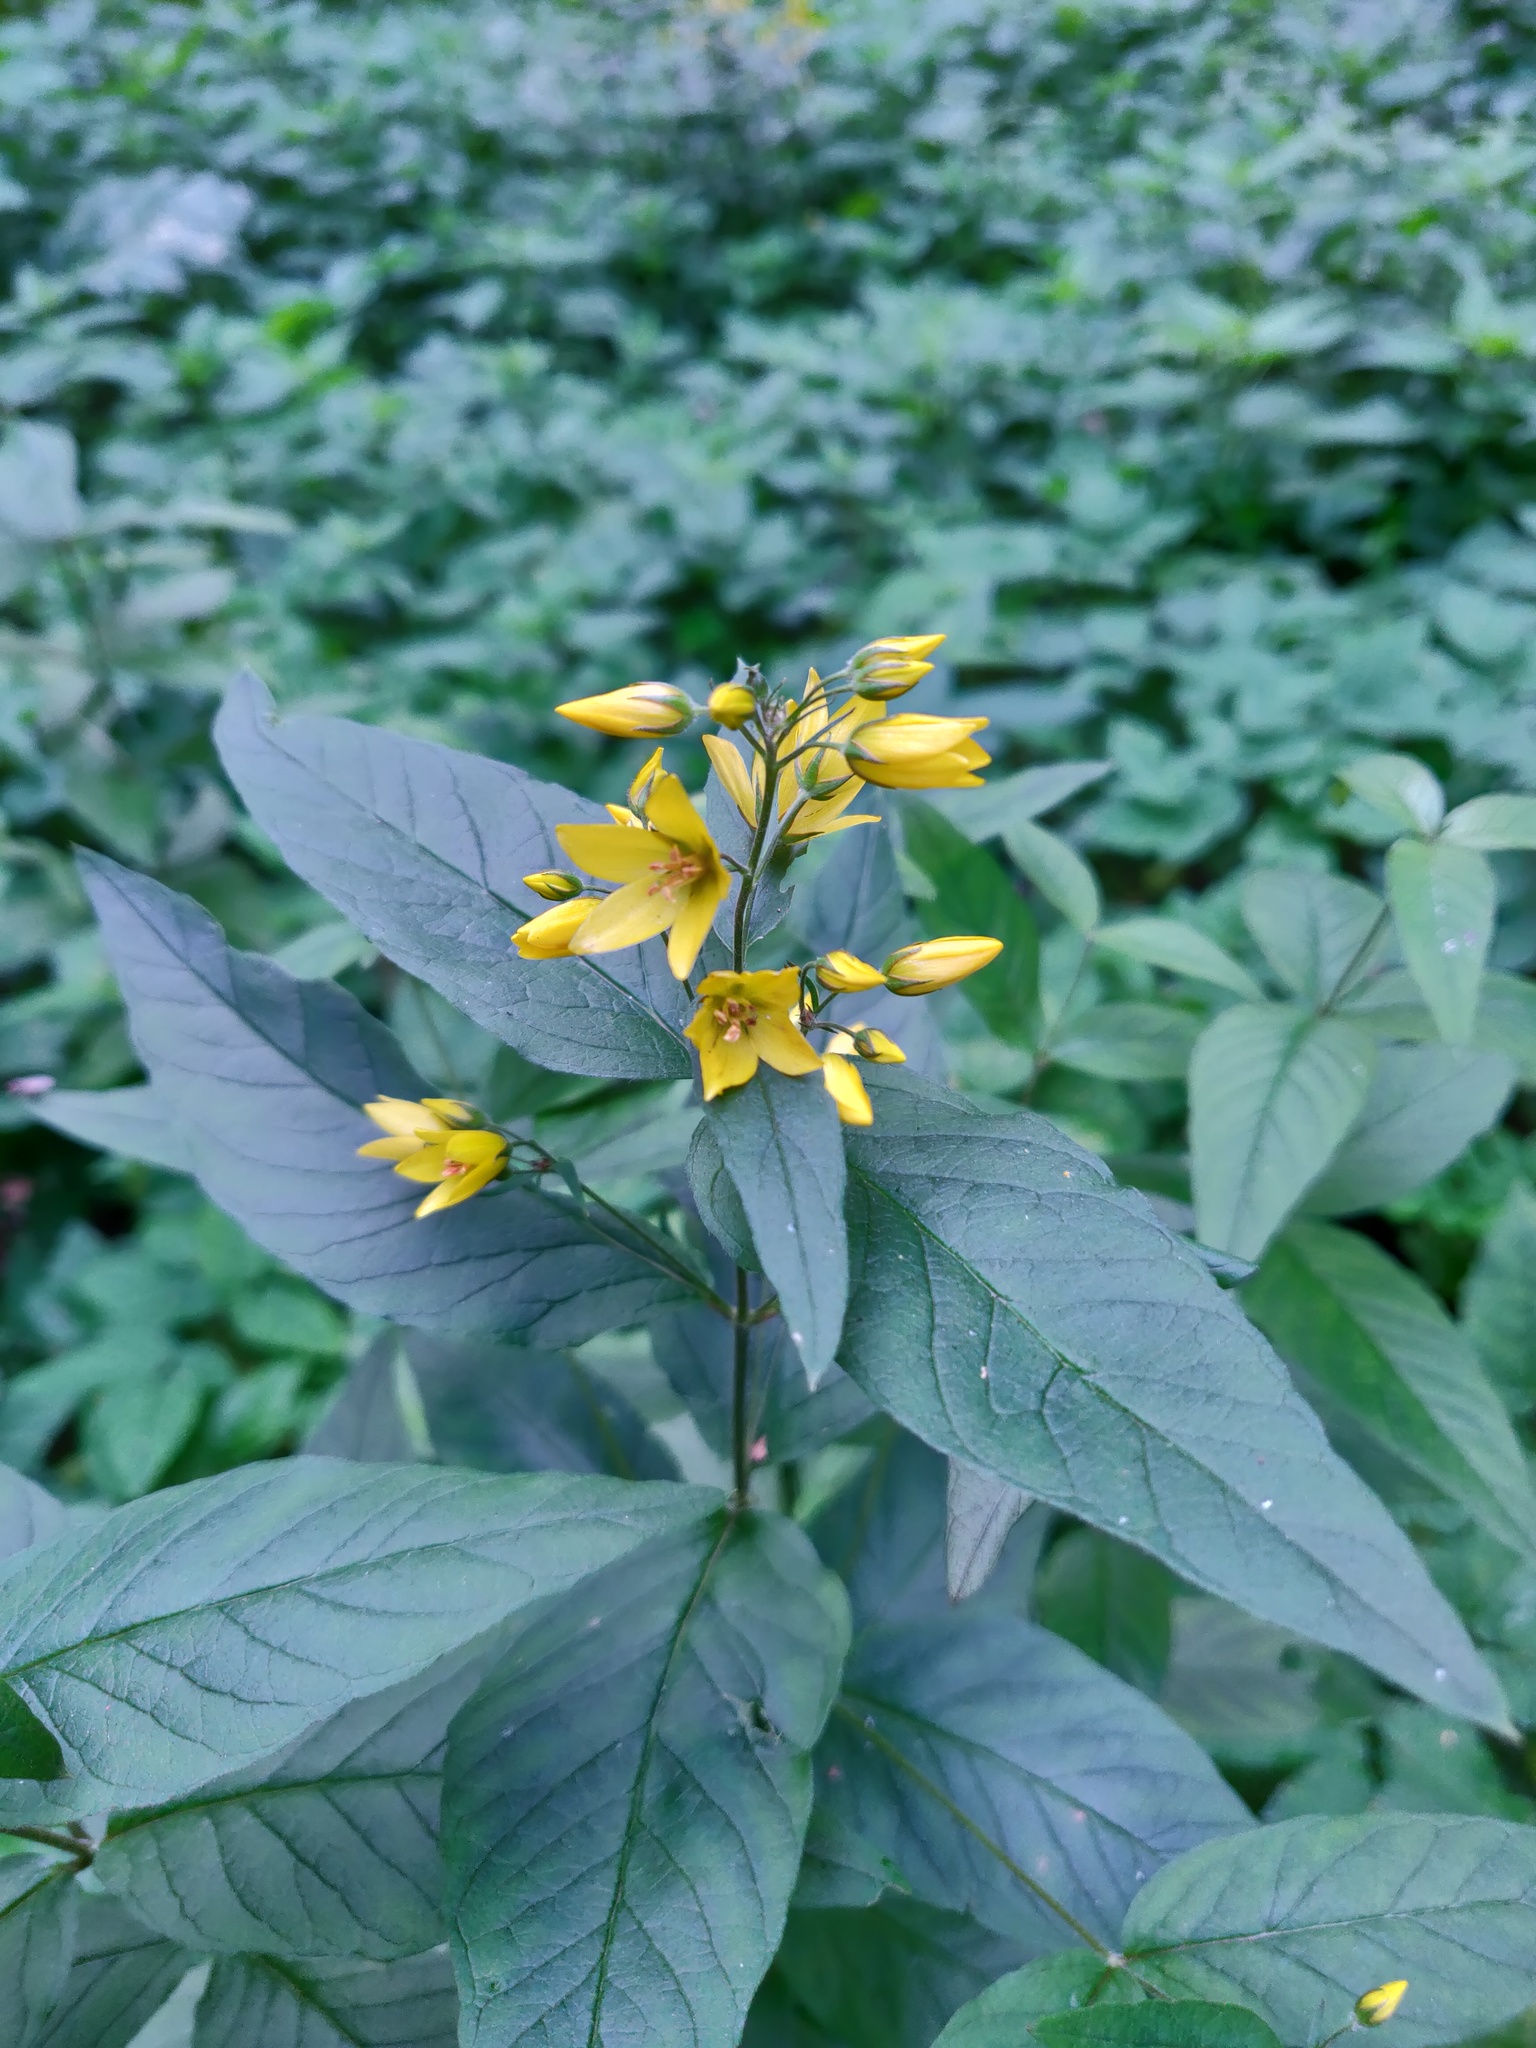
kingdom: Plantae
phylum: Tracheophyta
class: Magnoliopsida
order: Ericales
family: Primulaceae
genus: Lysimachia
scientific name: Lysimachia vulgaris
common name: Yellow loosestrife
